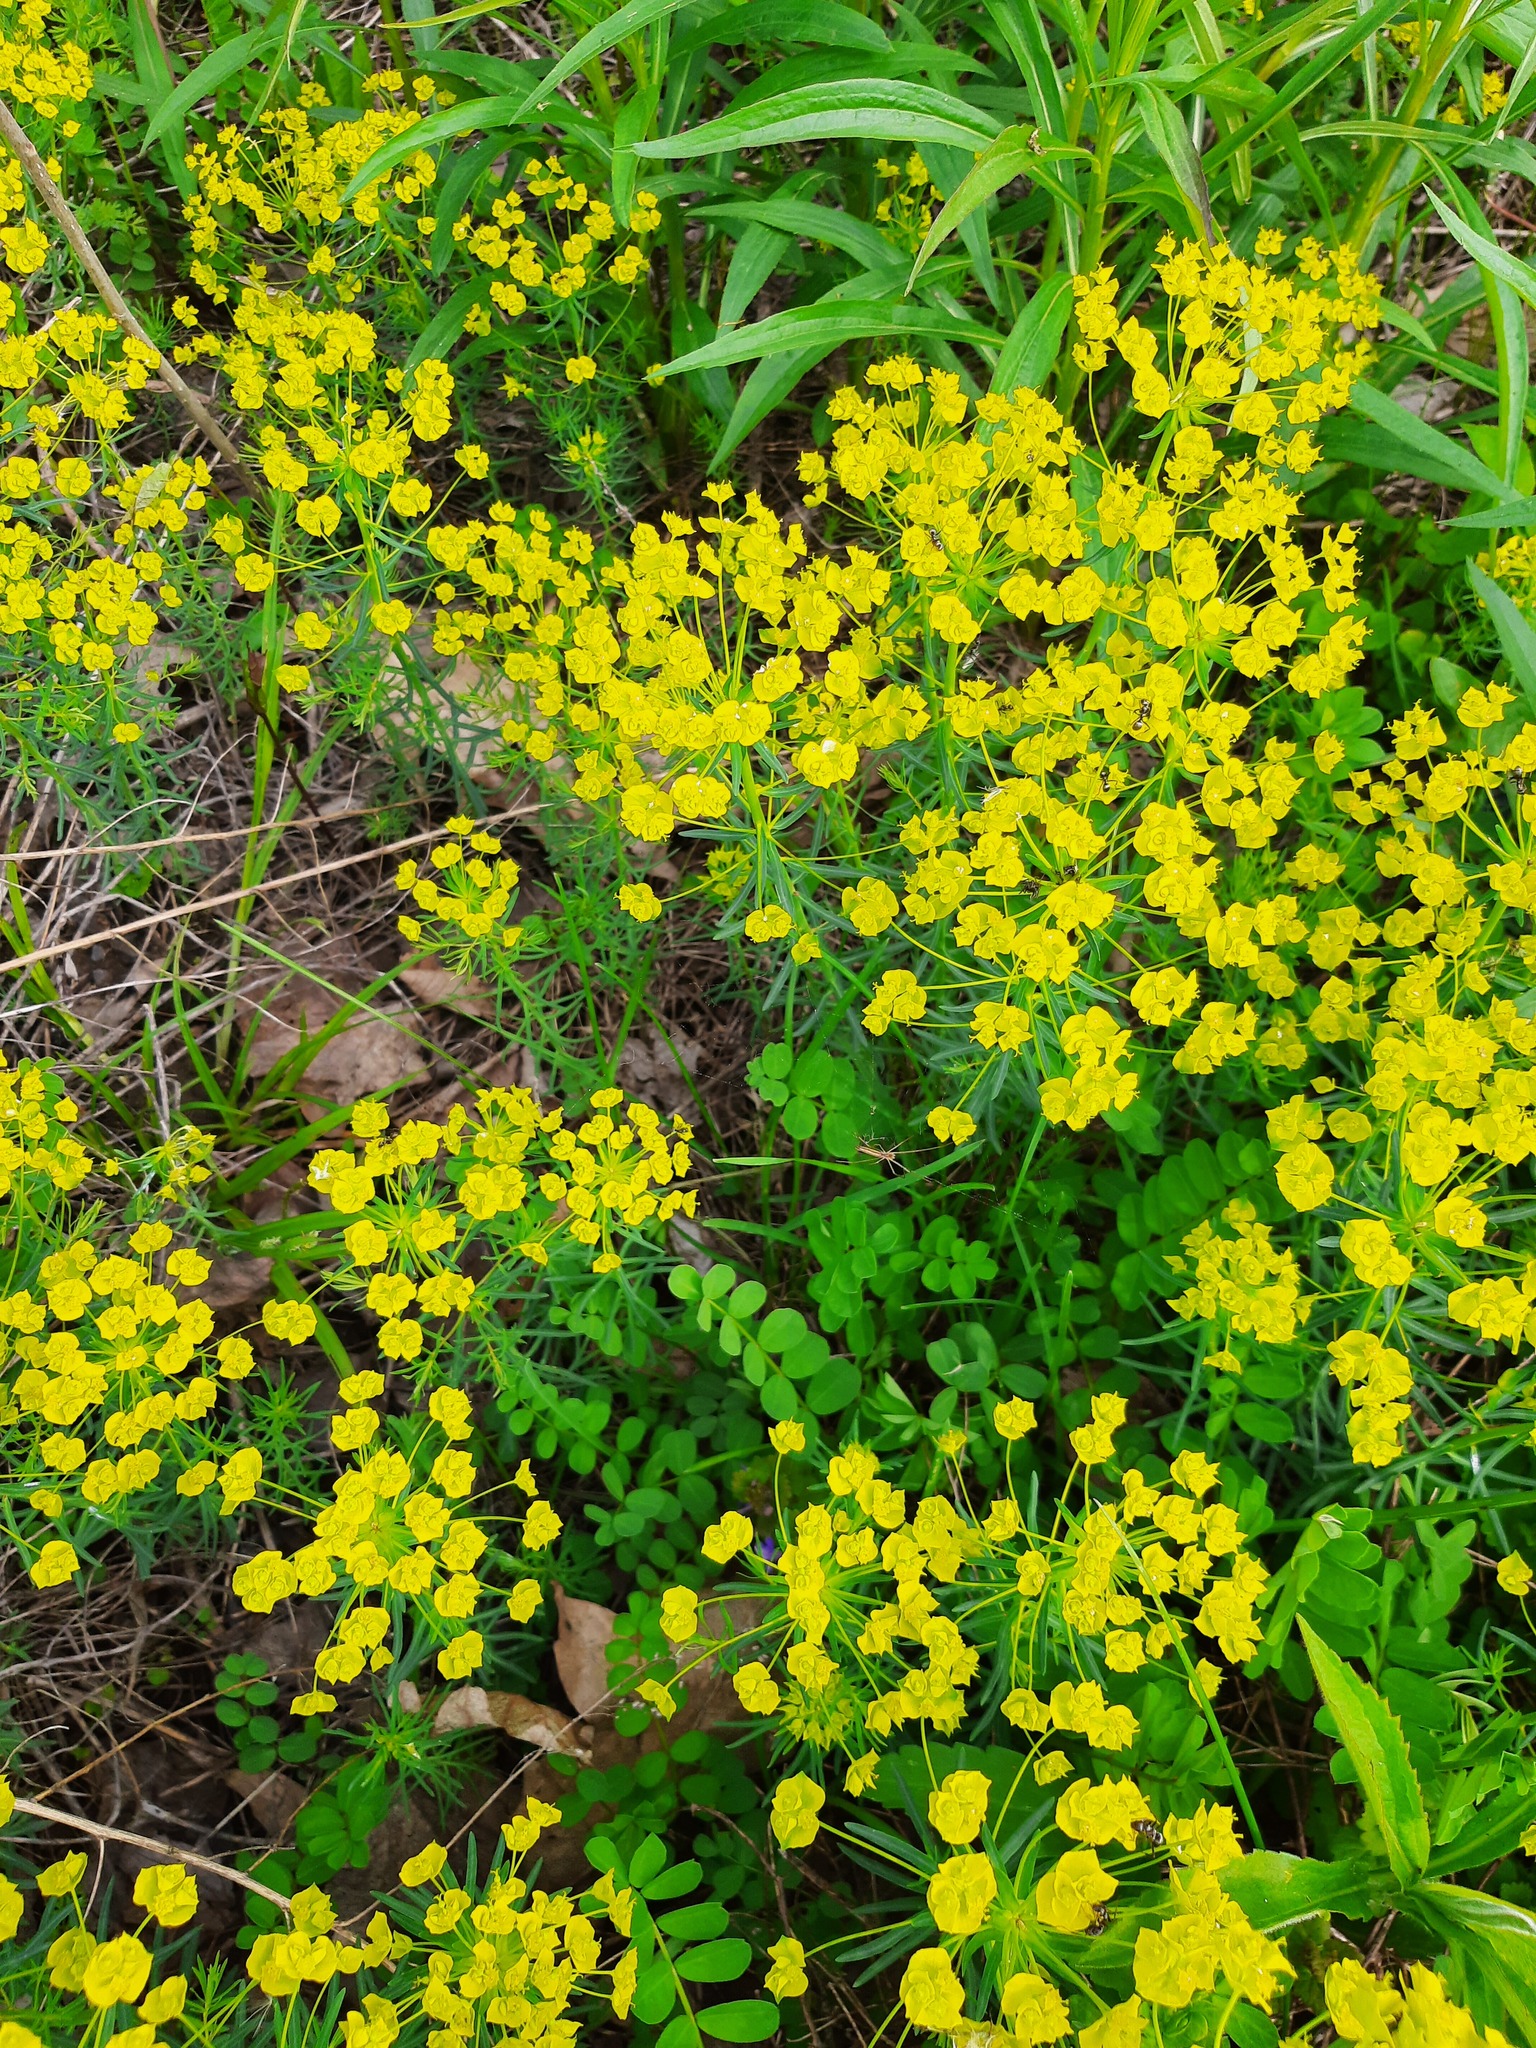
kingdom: Plantae
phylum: Tracheophyta
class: Magnoliopsida
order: Malpighiales
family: Euphorbiaceae
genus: Euphorbia
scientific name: Euphorbia cyparissias
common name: Cypress spurge
